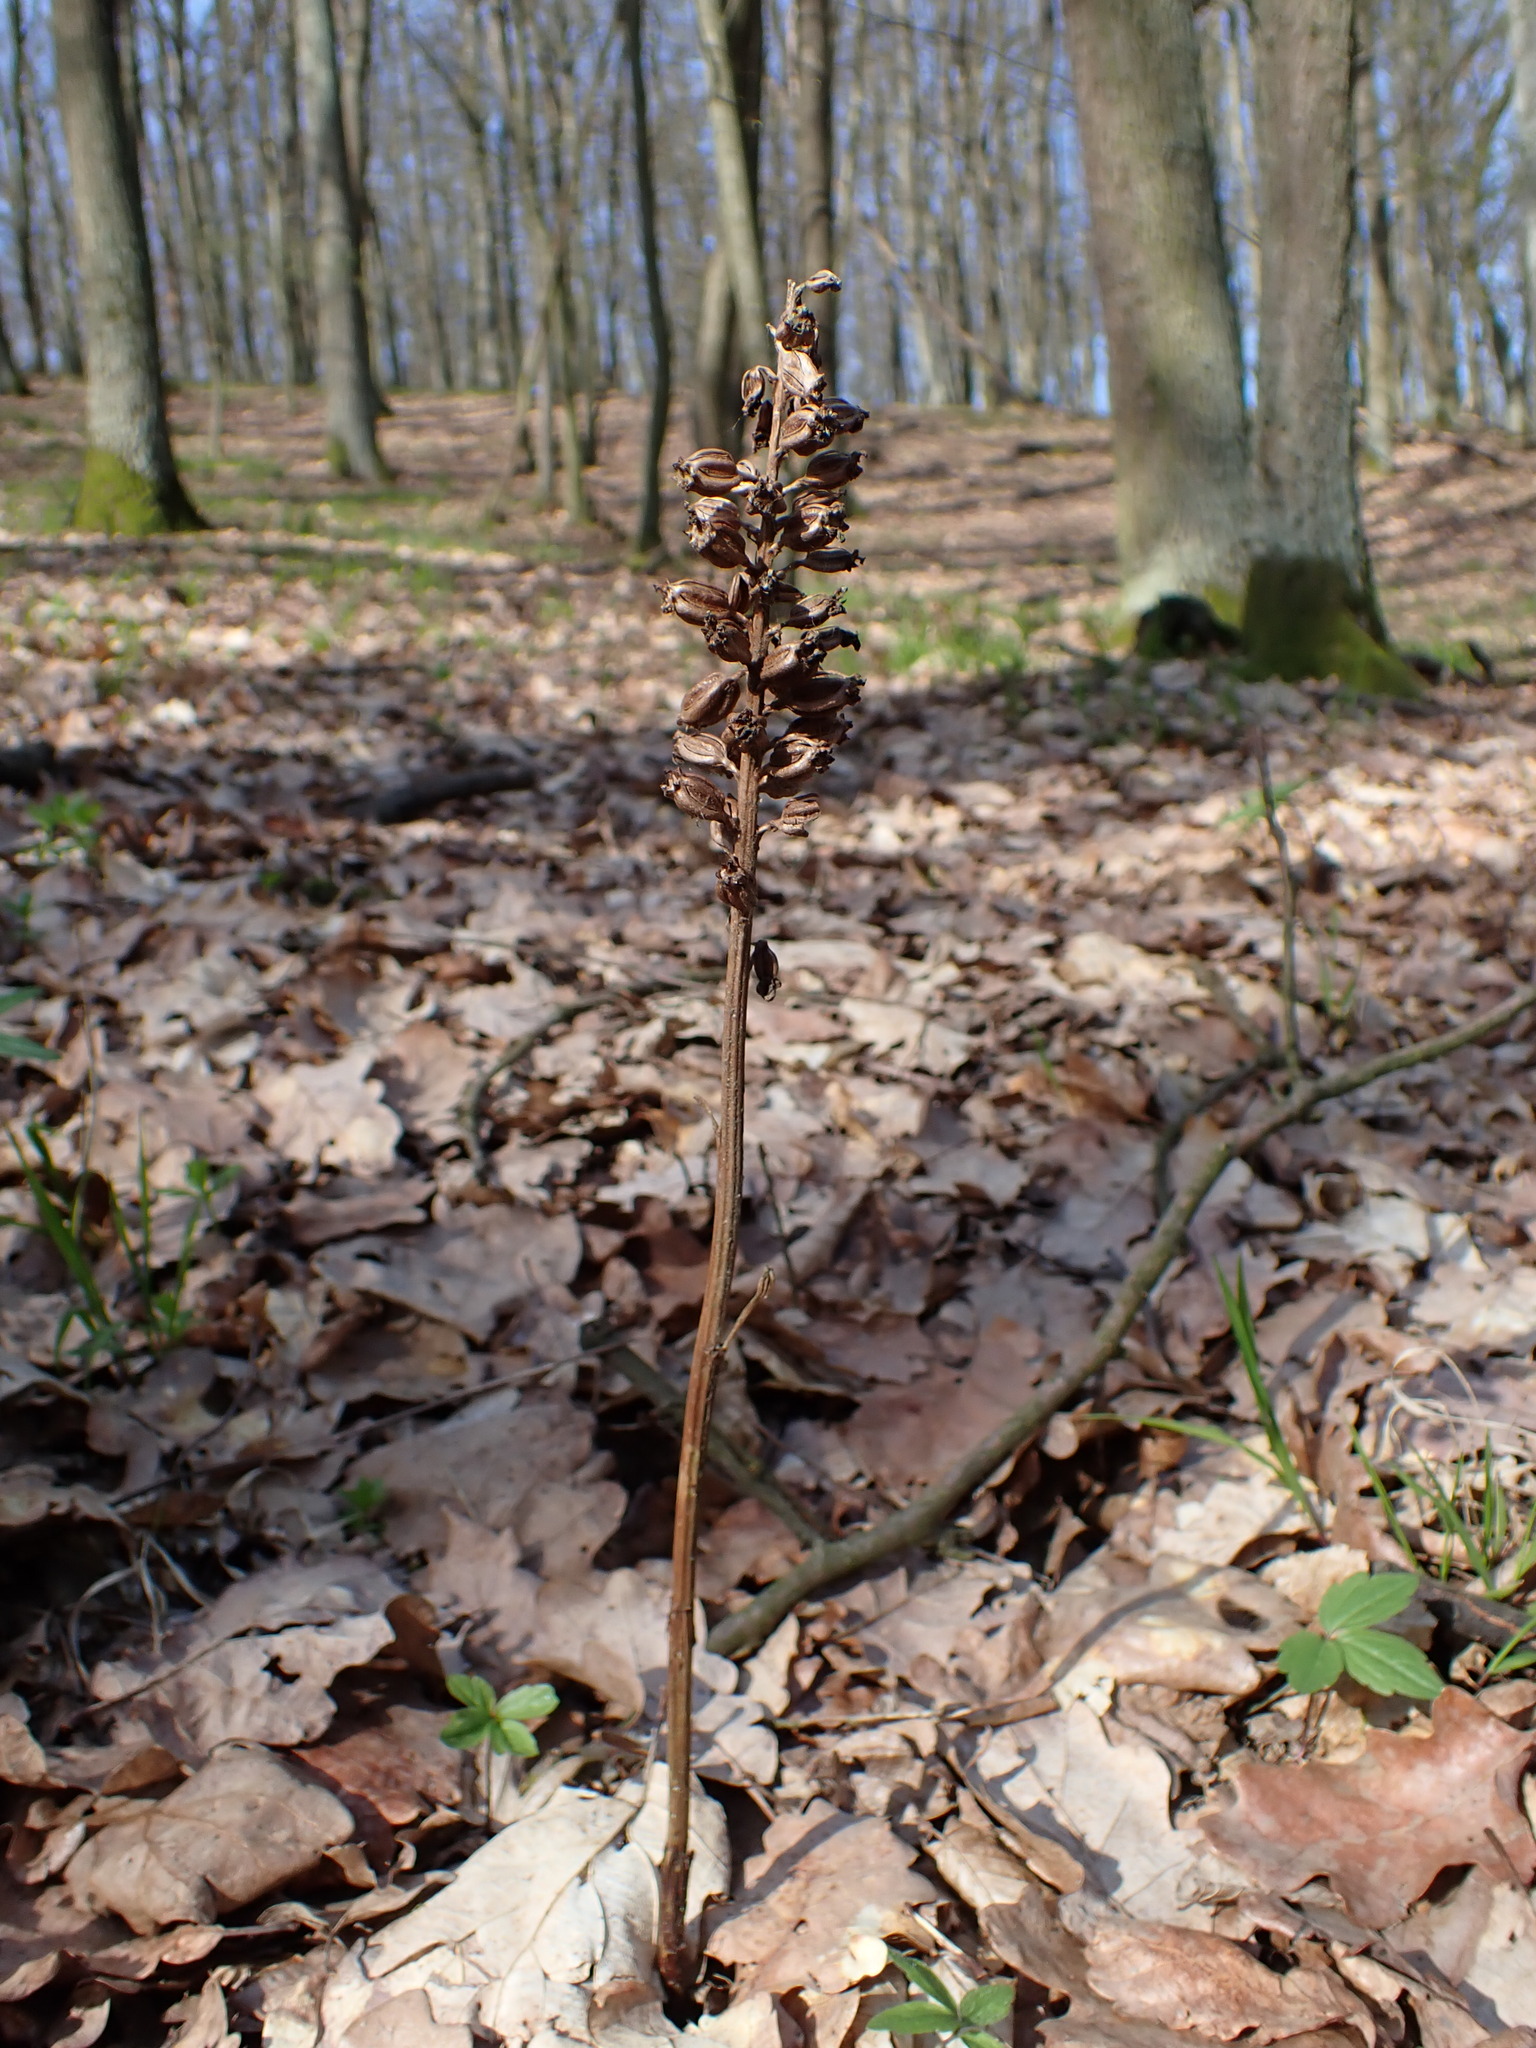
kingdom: Plantae
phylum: Tracheophyta
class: Liliopsida
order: Asparagales
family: Orchidaceae
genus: Neottia
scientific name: Neottia nidus-avis
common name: Bird's-nest orchid
